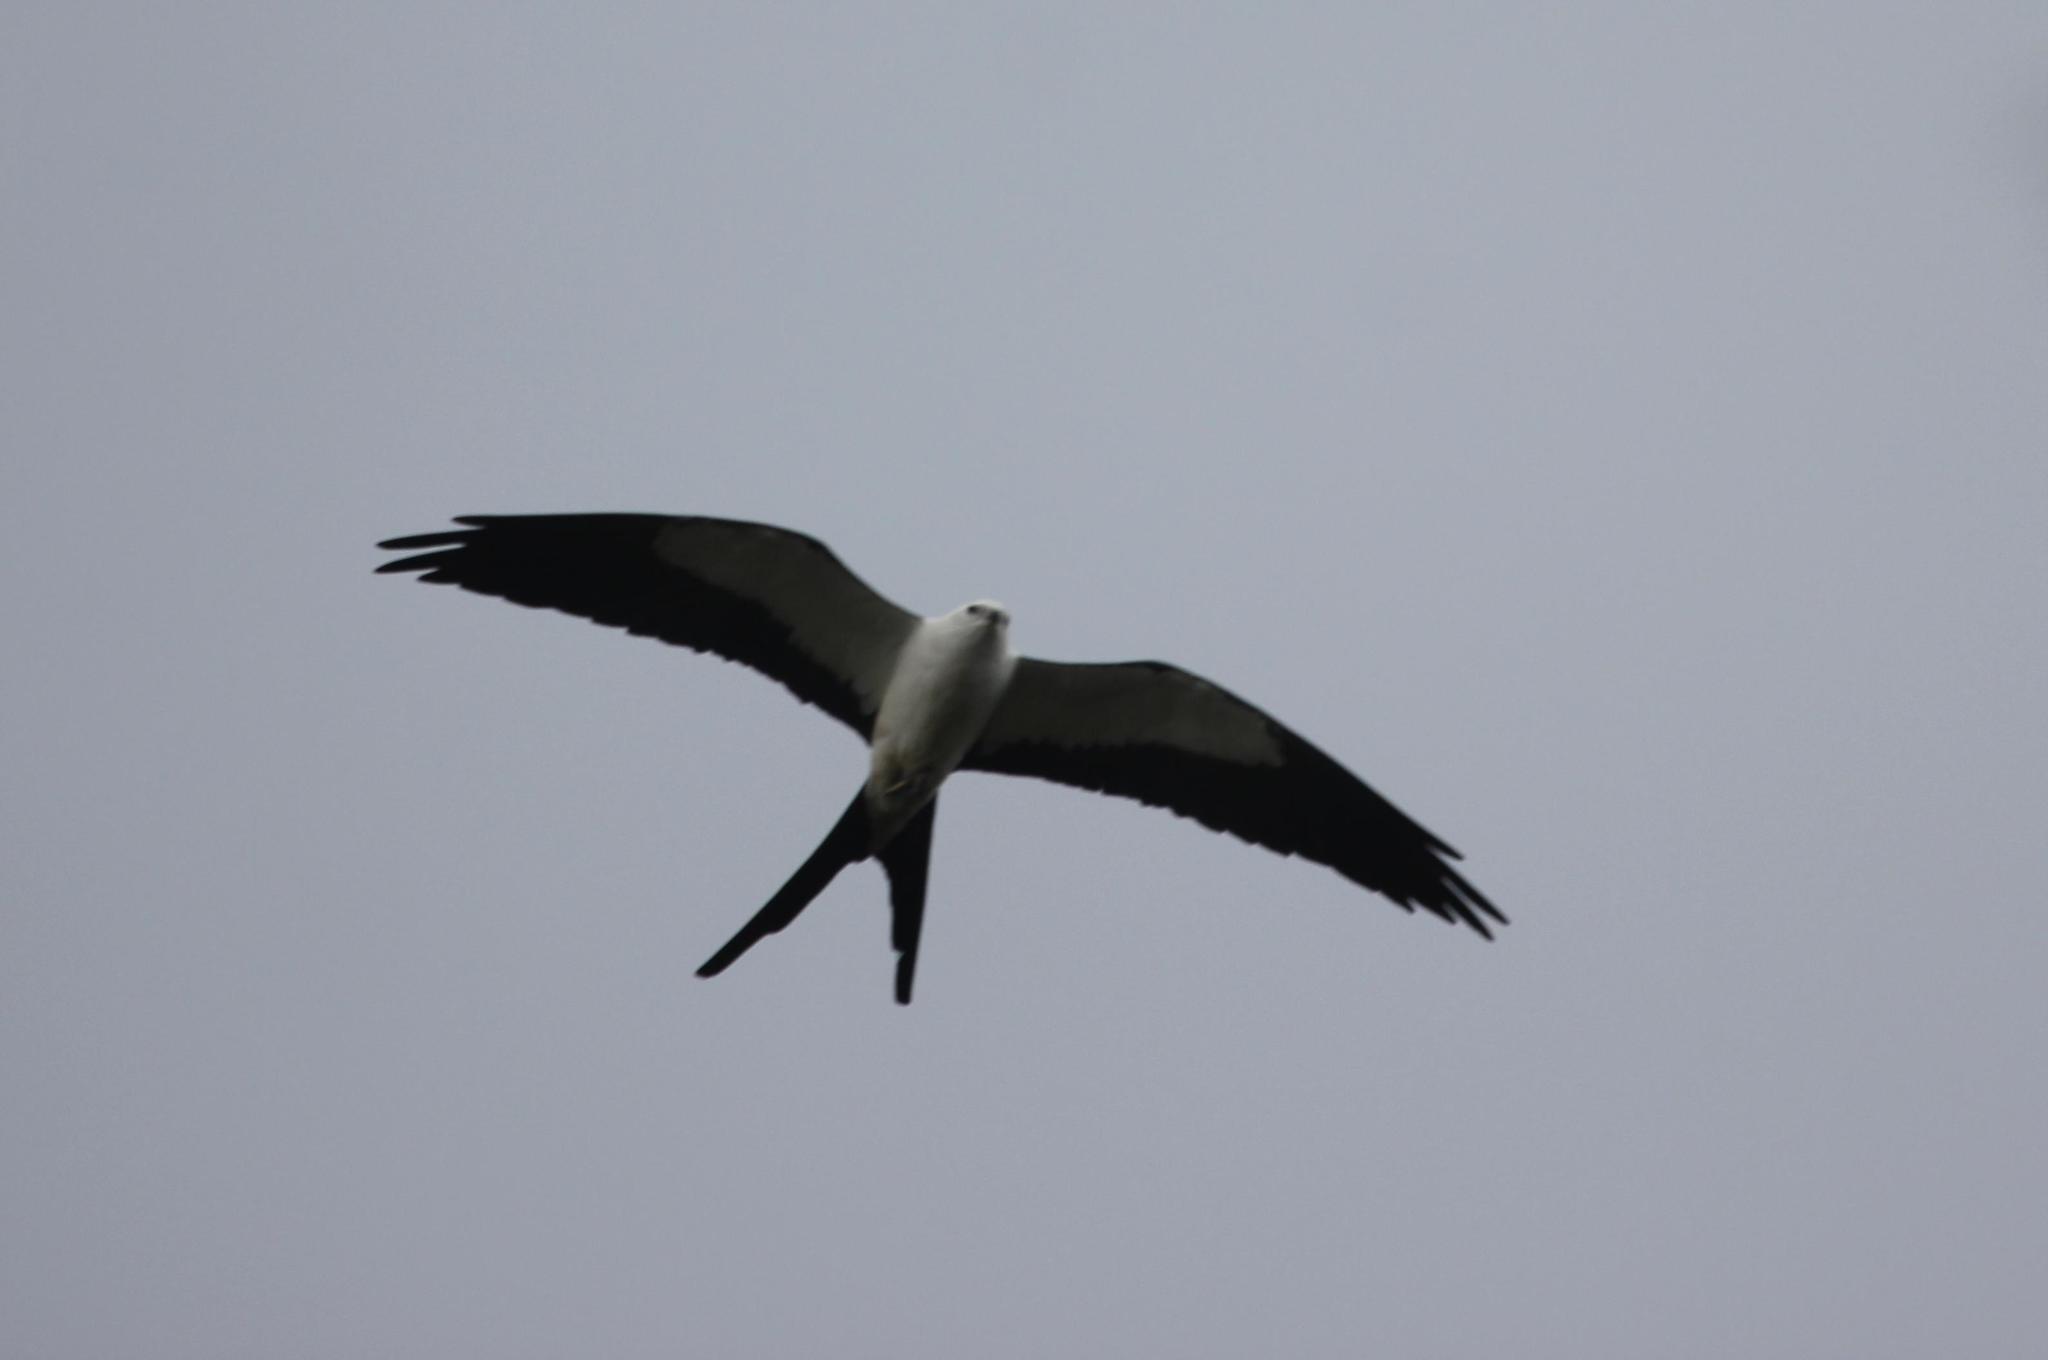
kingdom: Animalia
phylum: Chordata
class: Aves
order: Accipitriformes
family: Accipitridae
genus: Elanoides
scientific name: Elanoides forficatus
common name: Swallow-tailed kite
